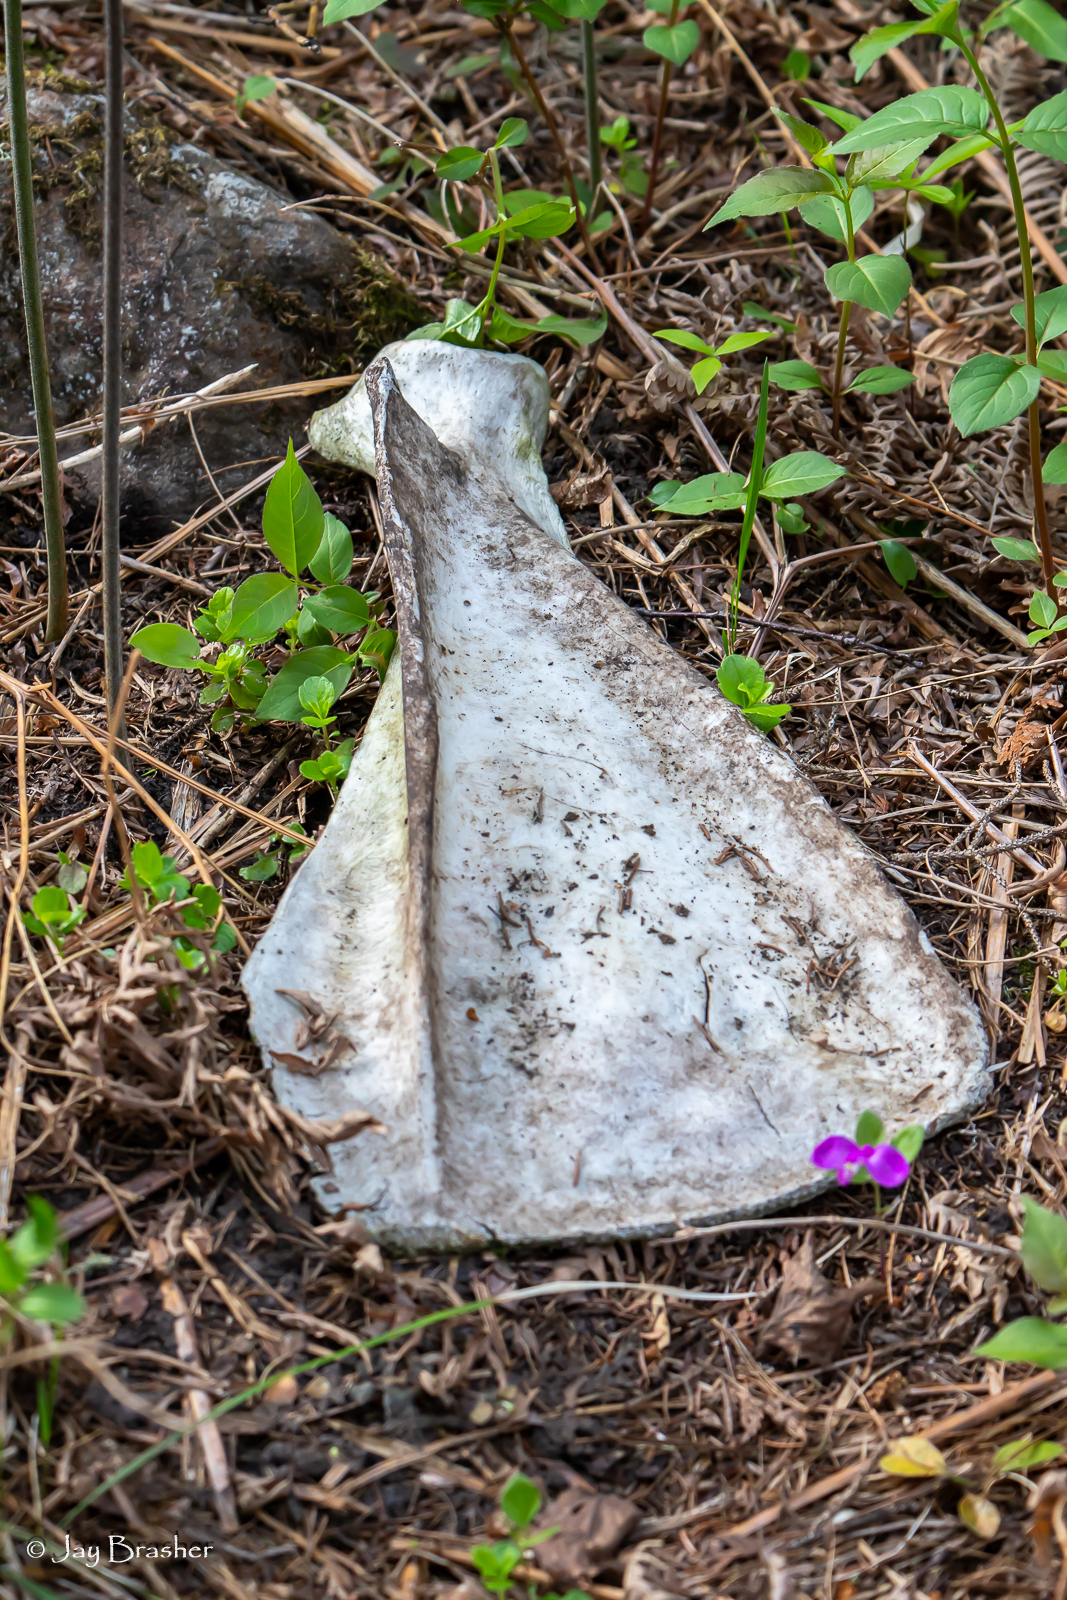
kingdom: Animalia
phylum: Chordata
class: Mammalia
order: Artiodactyla
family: Cervidae
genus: Alces
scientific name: Alces americanus
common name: Moose
